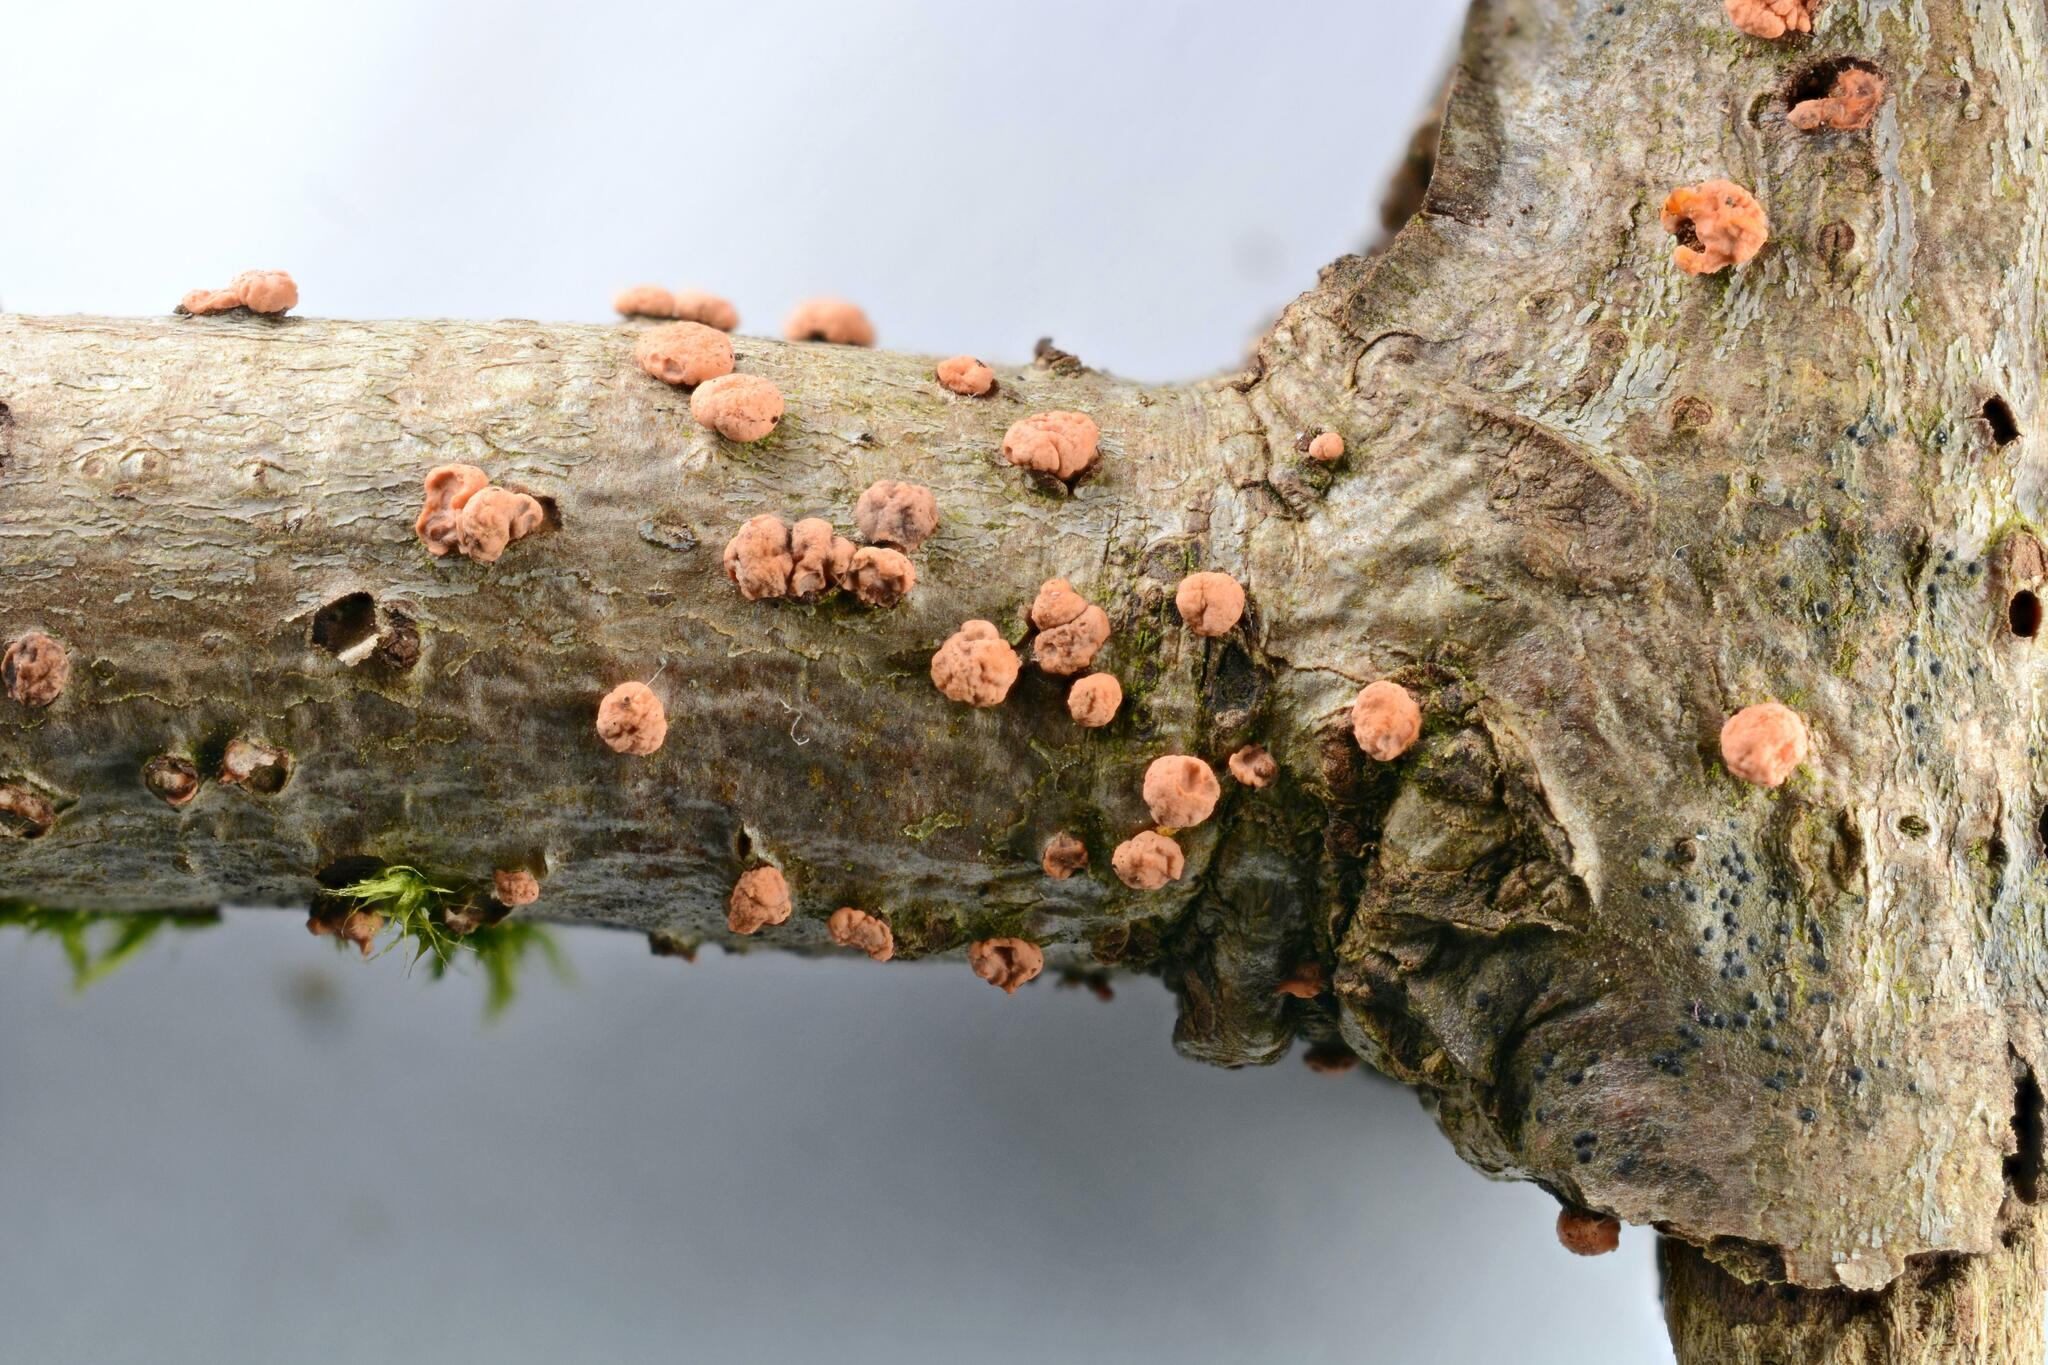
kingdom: Fungi
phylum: Ascomycota
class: Sordariomycetes
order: Hypocreales
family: Nectriaceae
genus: Nectria
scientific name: Nectria cinnabarina
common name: Coral spot
